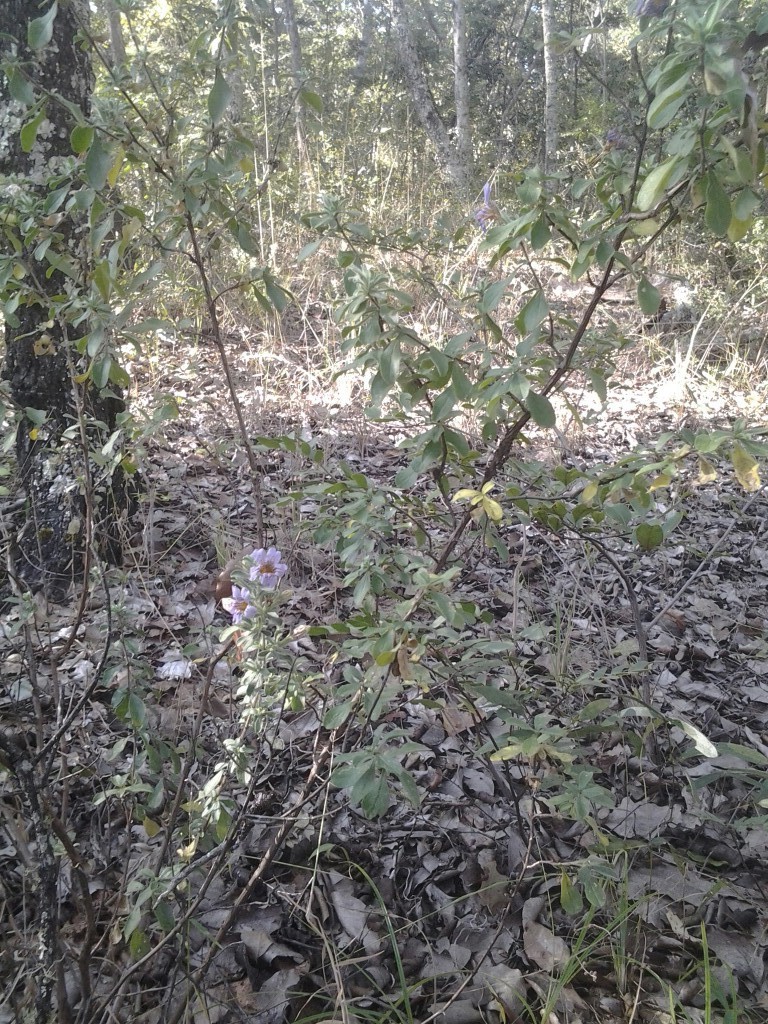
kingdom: Plantae
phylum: Tracheophyta
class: Magnoliopsida
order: Lamiales
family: Acanthaceae
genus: Strobilanthopsis
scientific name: Strobilanthopsis linifolia
